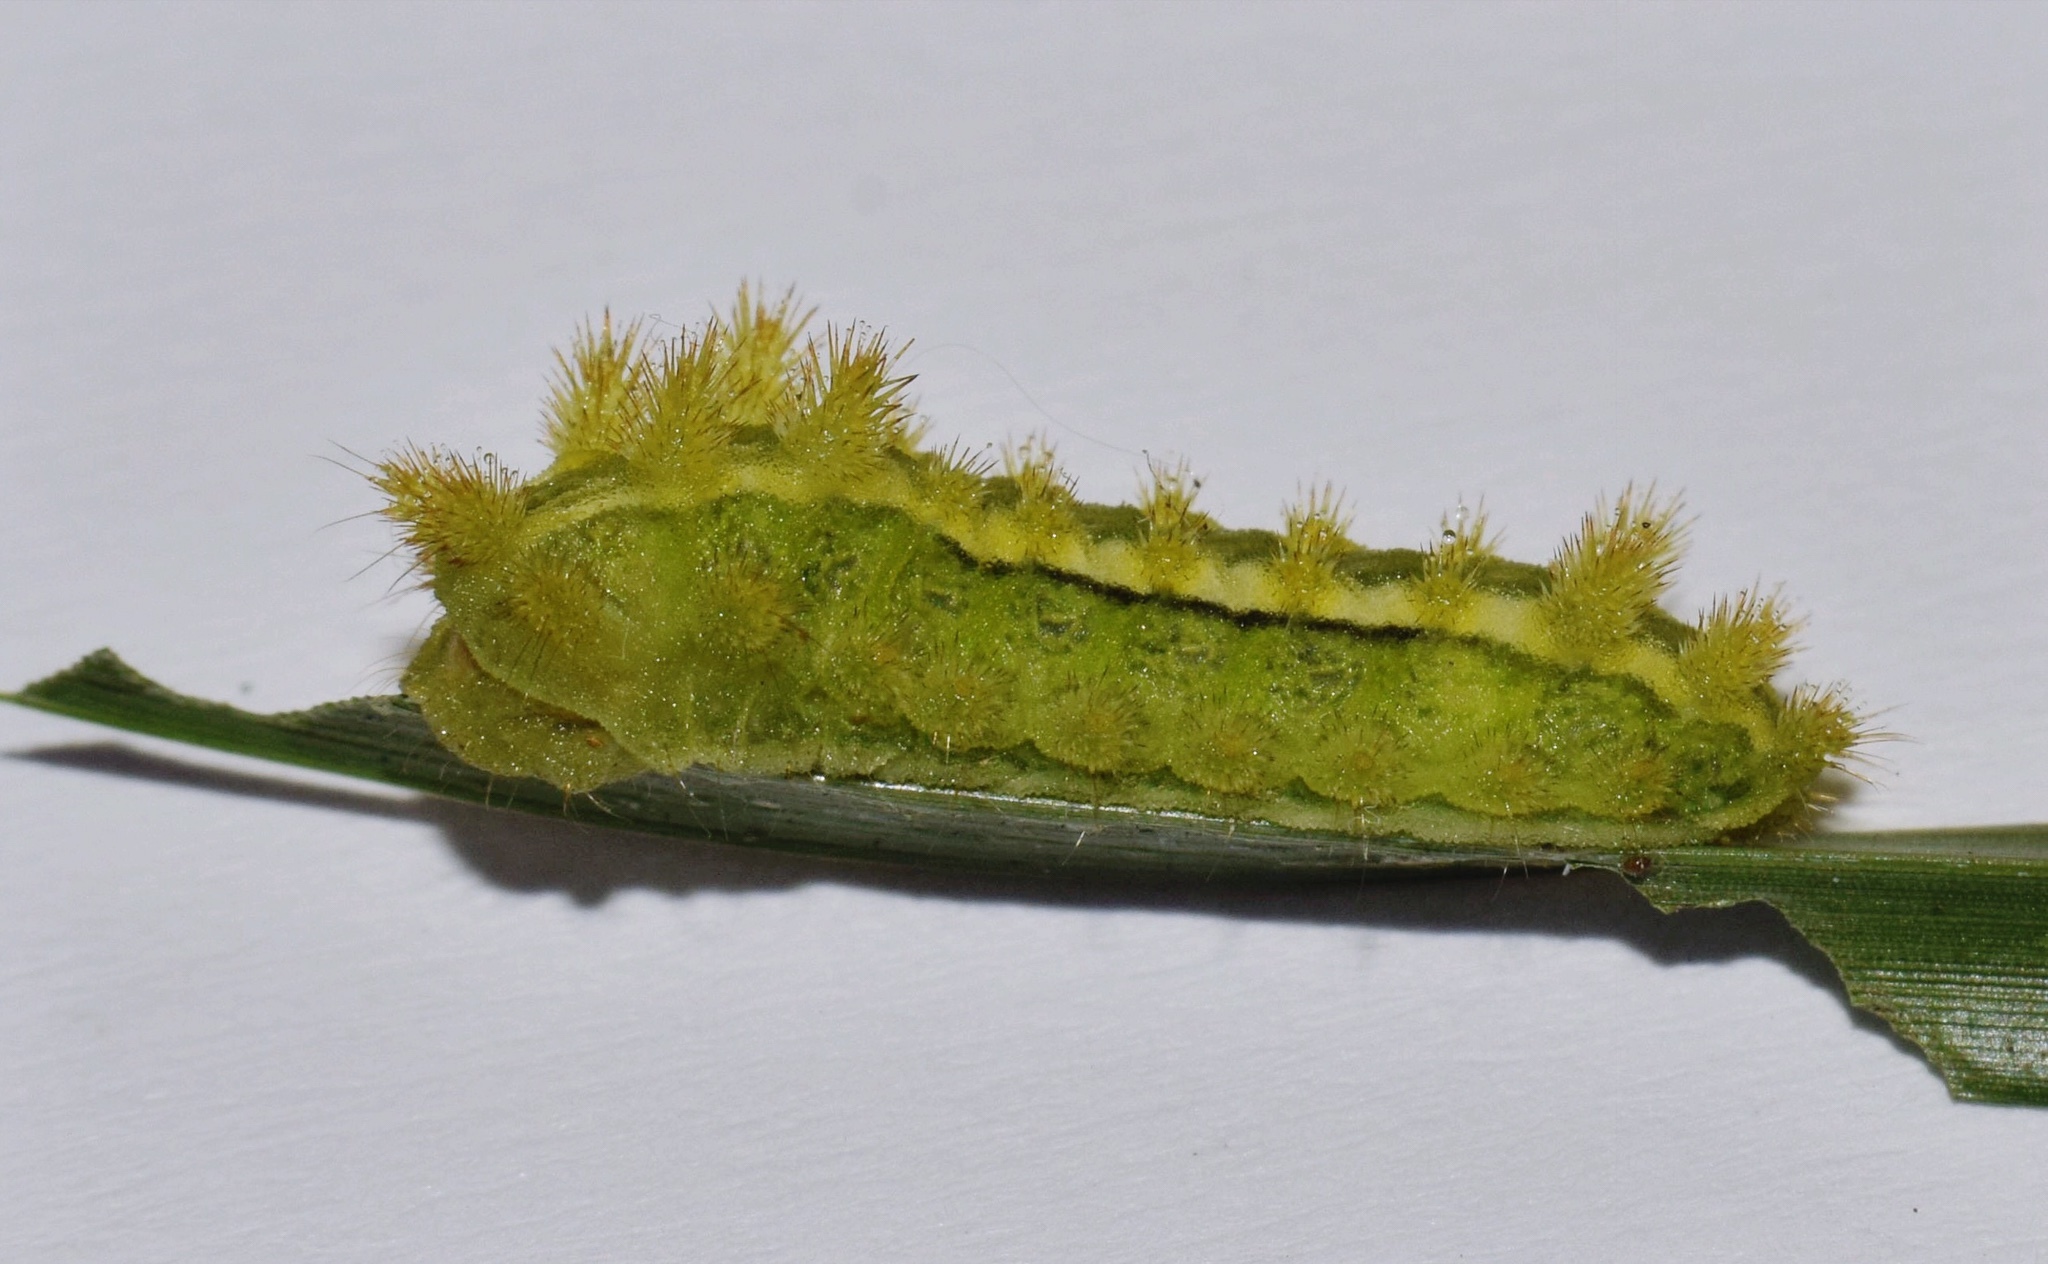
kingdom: Animalia
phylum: Arthropoda
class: Insecta
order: Lepidoptera
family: Limacodidae
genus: Omocenoides
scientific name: Omocenoides isophanes
